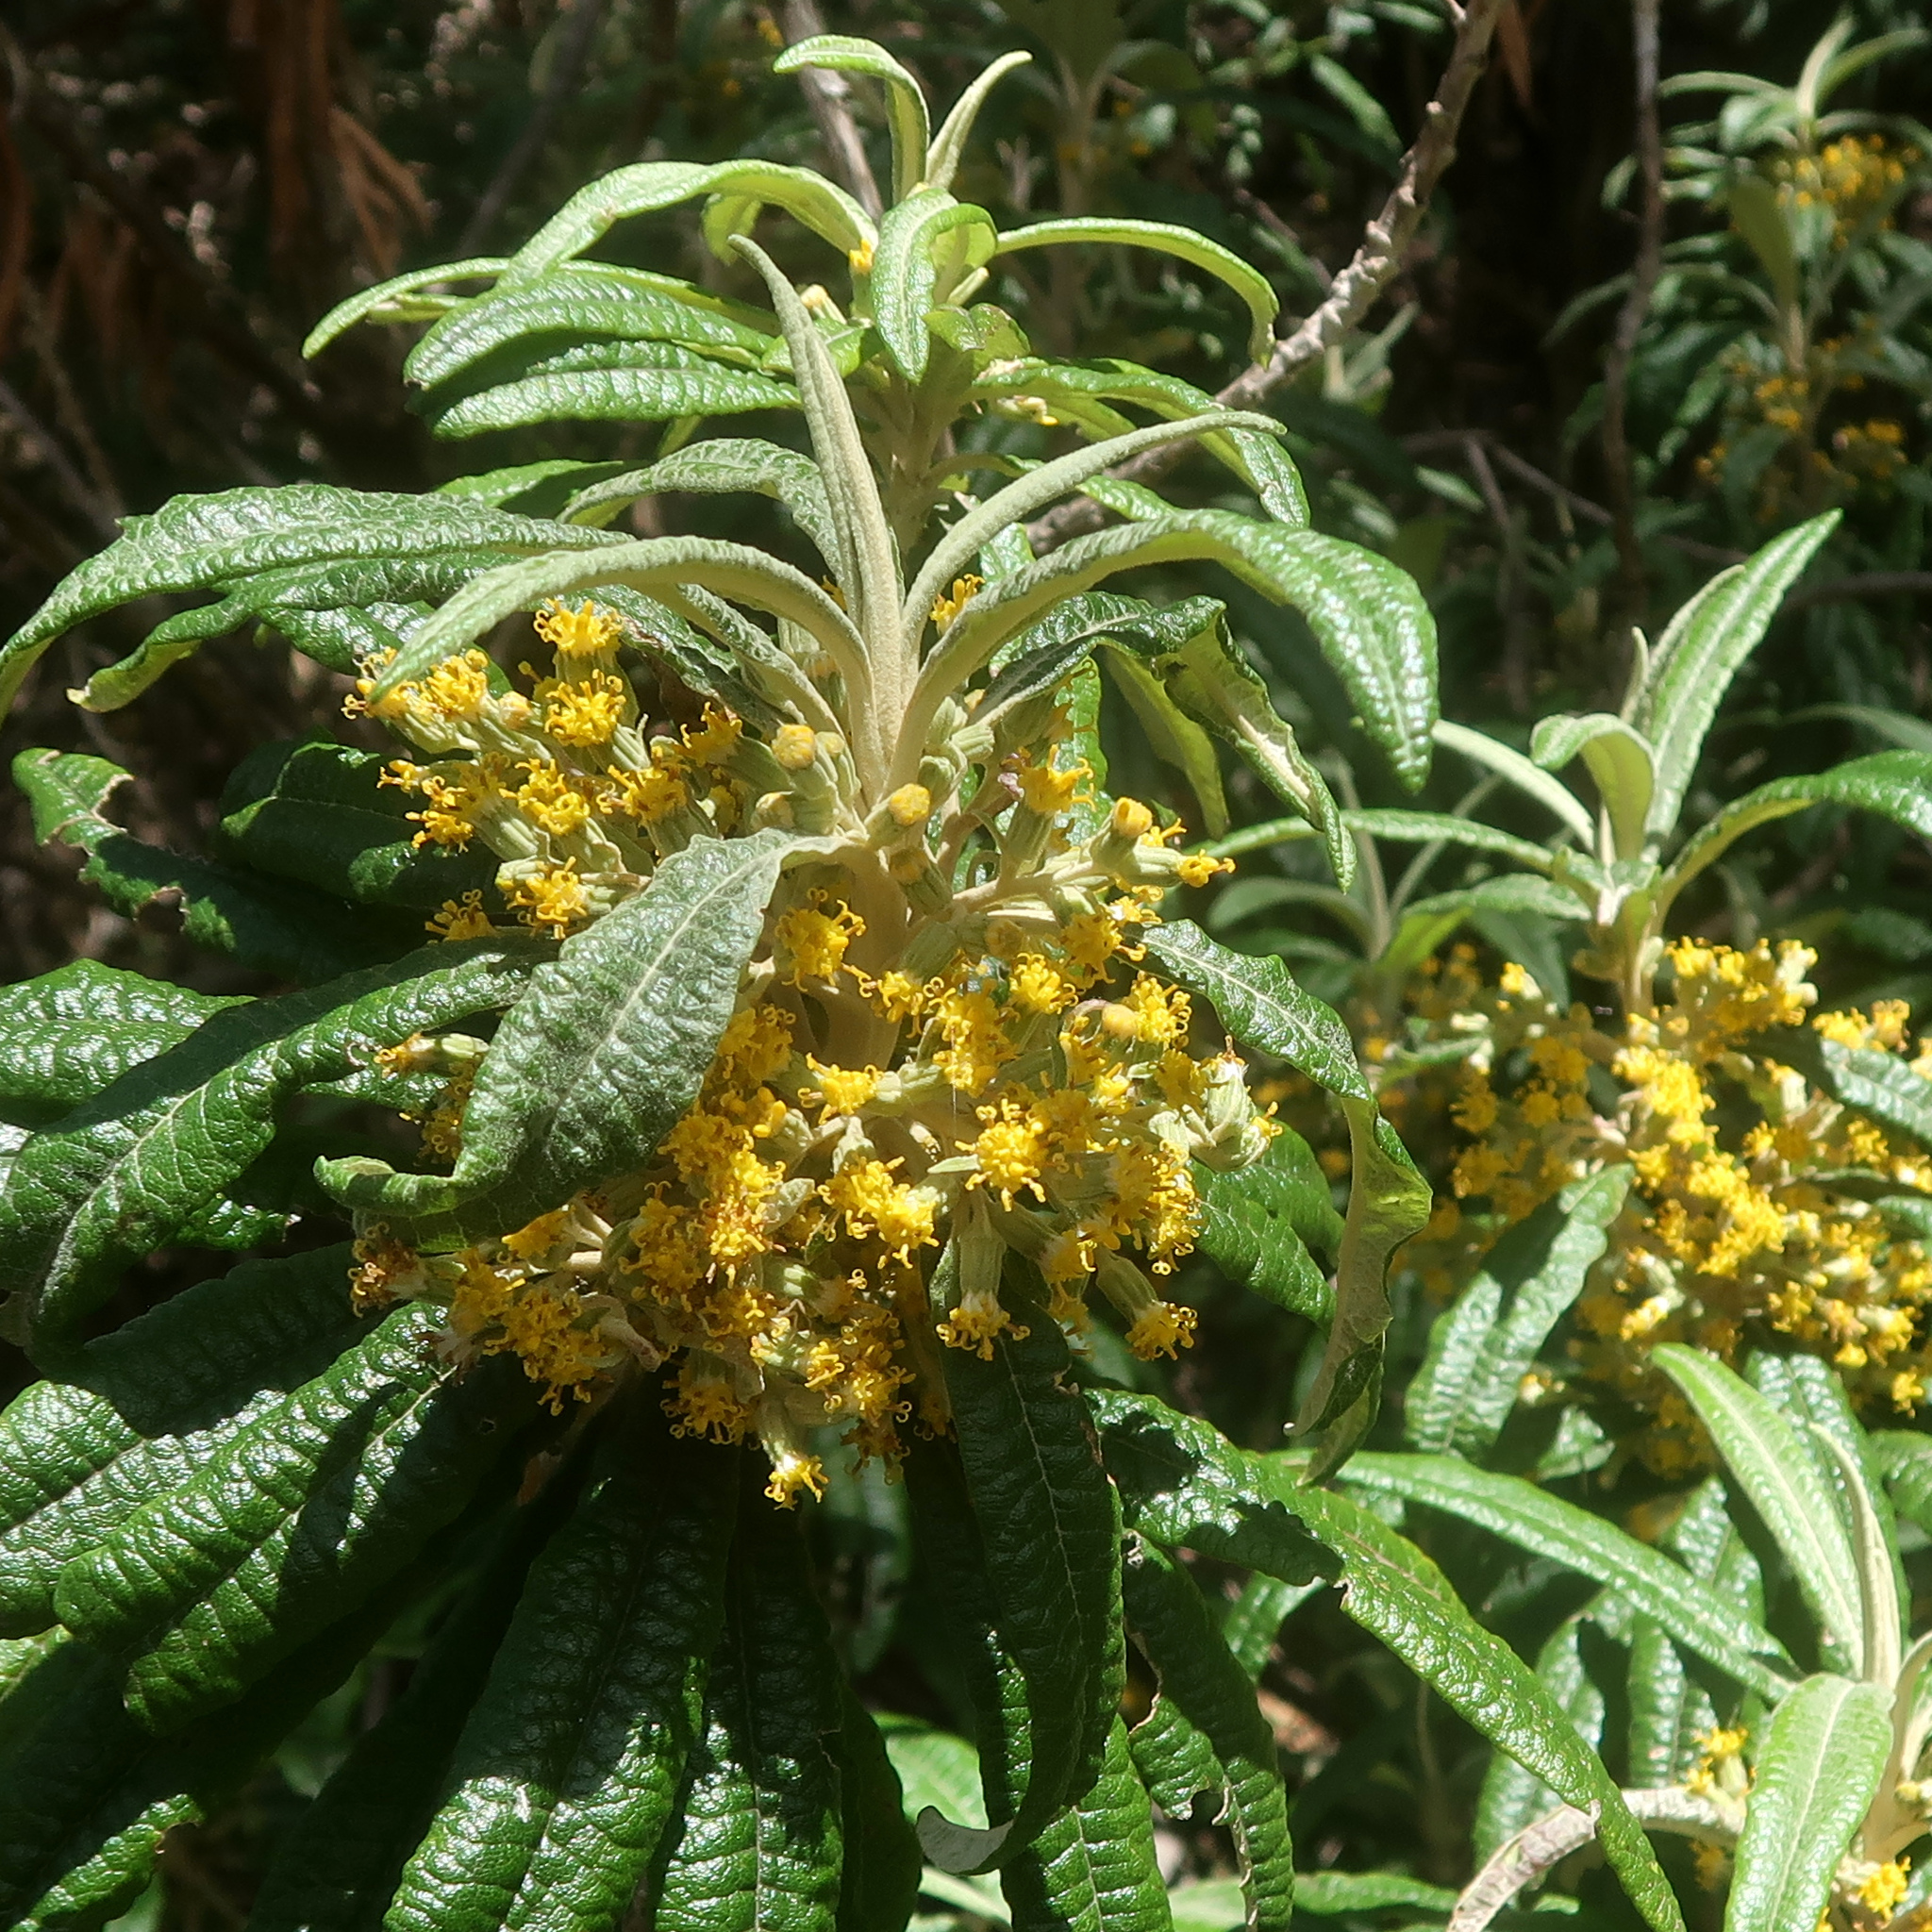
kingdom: Plantae
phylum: Tracheophyta
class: Magnoliopsida
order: Asterales
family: Asteraceae
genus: Bedfordia
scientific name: Bedfordia salicina
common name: Blanketleaf
